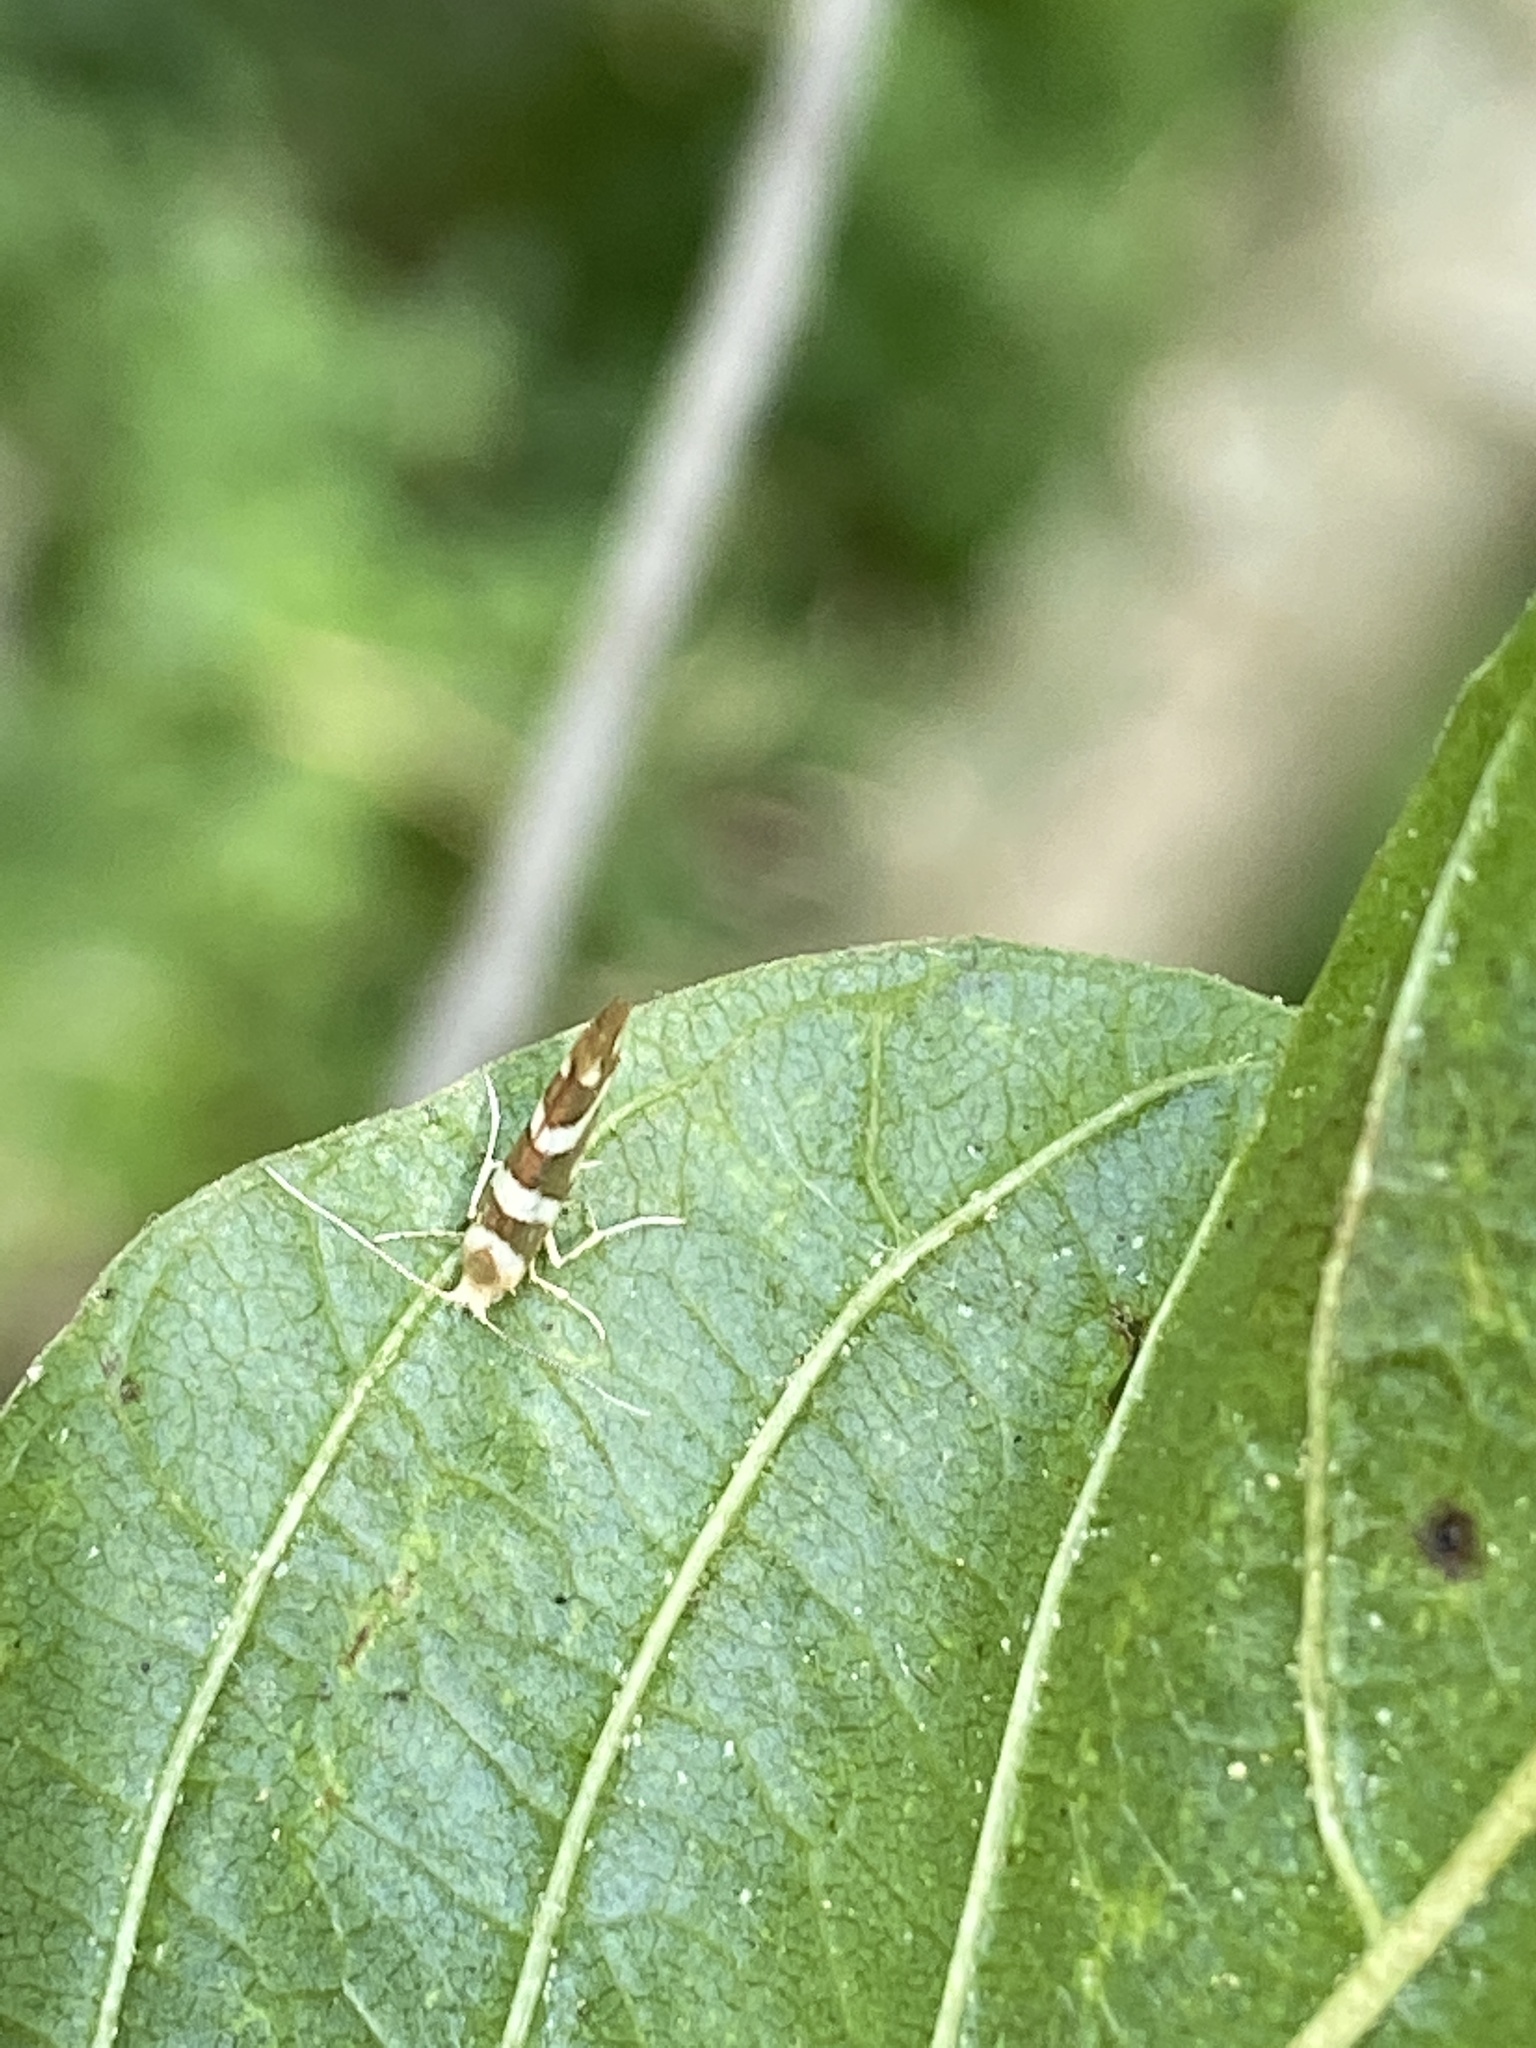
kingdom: Animalia
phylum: Arthropoda
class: Insecta
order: Lepidoptera
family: Argyresthiidae
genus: Argyresthia
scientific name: Argyresthia goedartella
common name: Golden argent
